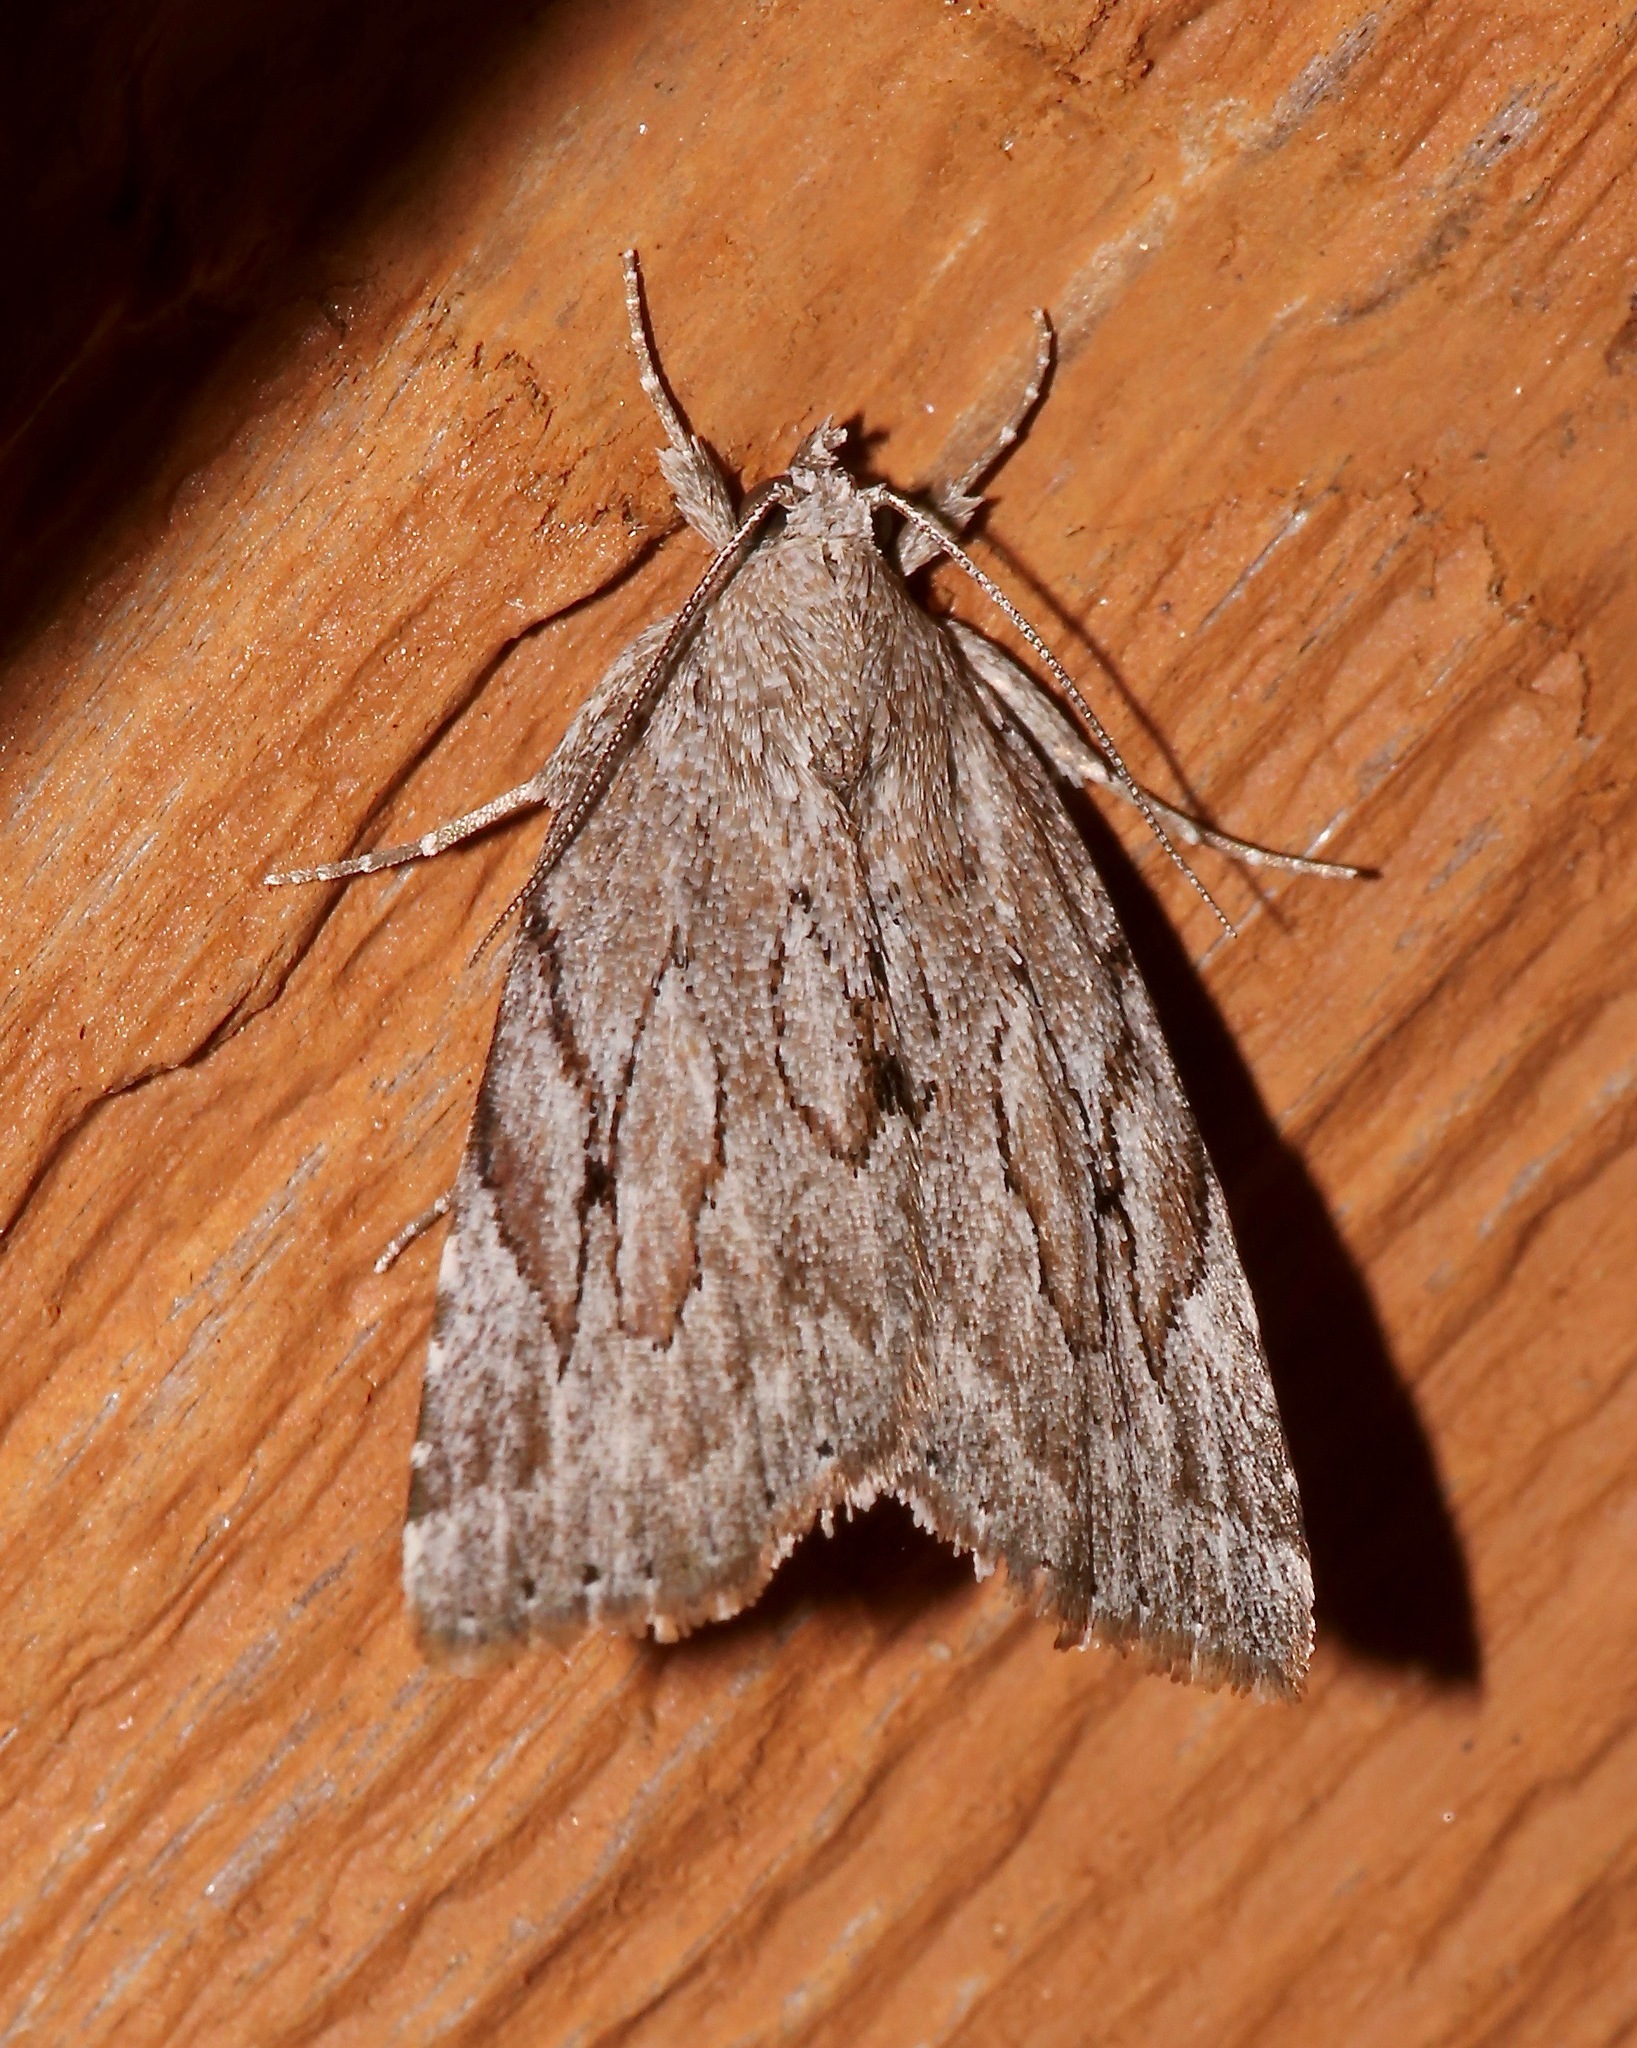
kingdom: Animalia
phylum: Arthropoda
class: Insecta
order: Lepidoptera
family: Erebidae
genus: Cutina
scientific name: Cutina albopunctella
